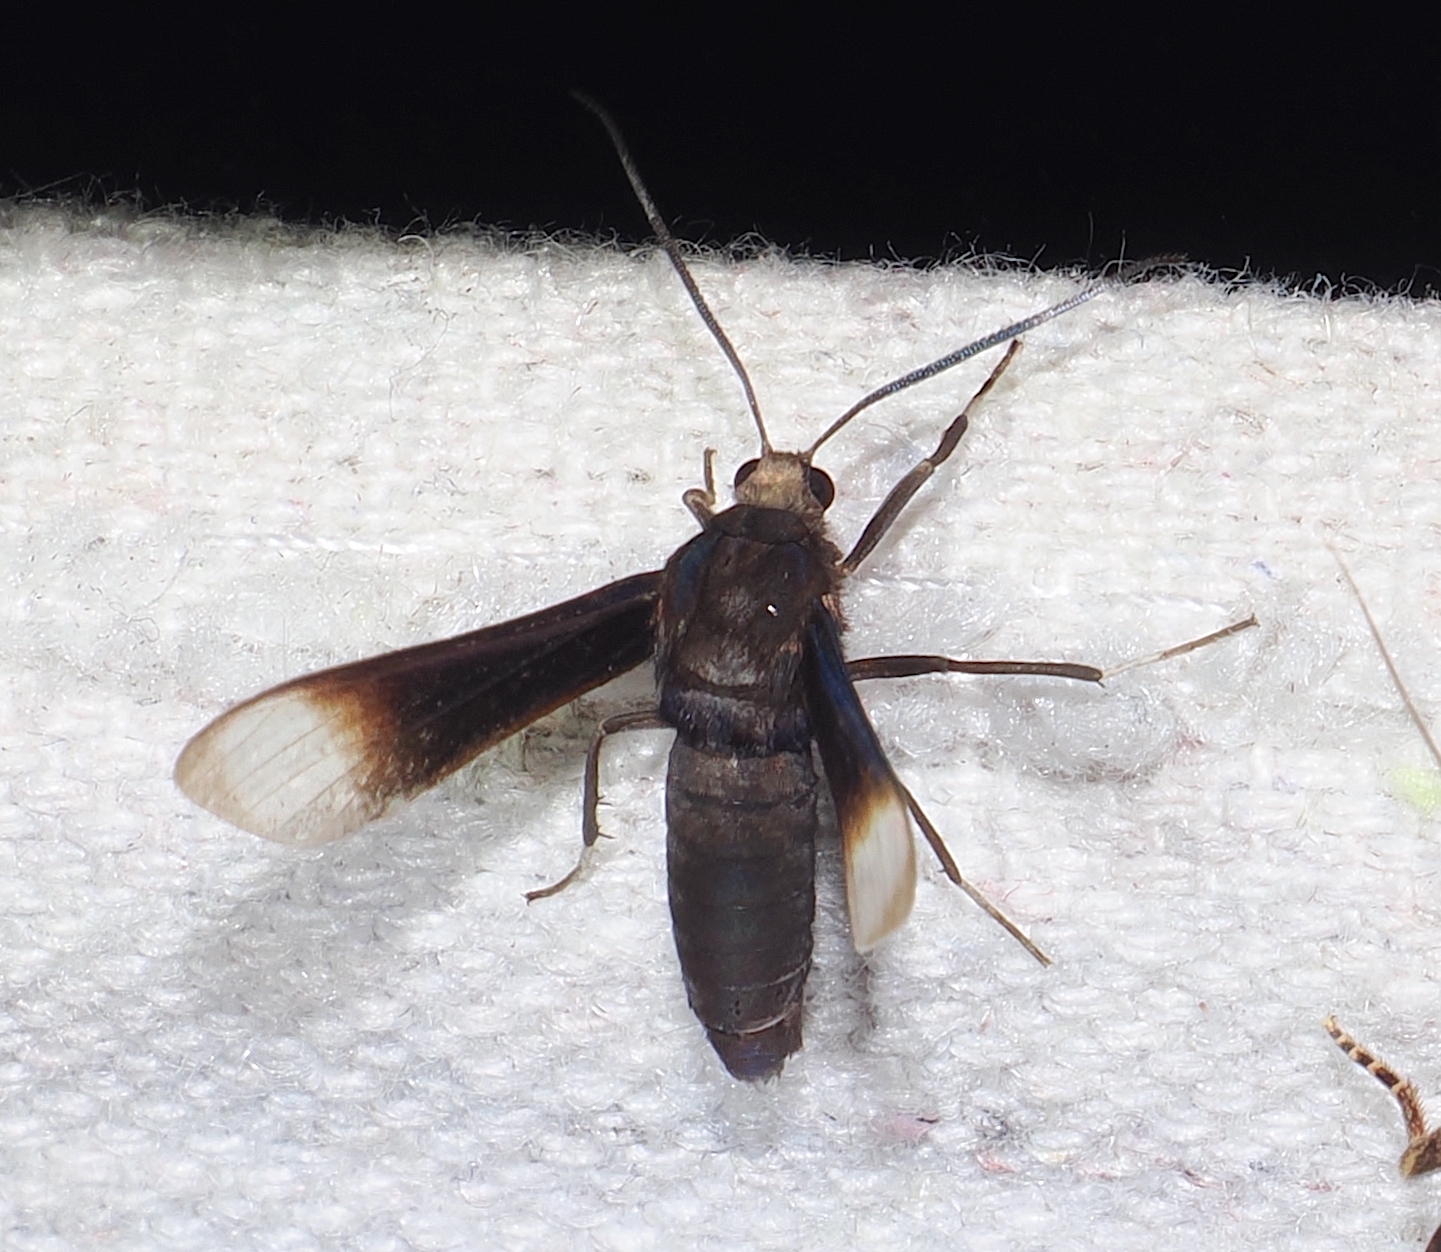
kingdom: Animalia
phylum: Arthropoda
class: Insecta
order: Lepidoptera
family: Erebidae
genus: Pompiliodes
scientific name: Pompiliodes aliena
